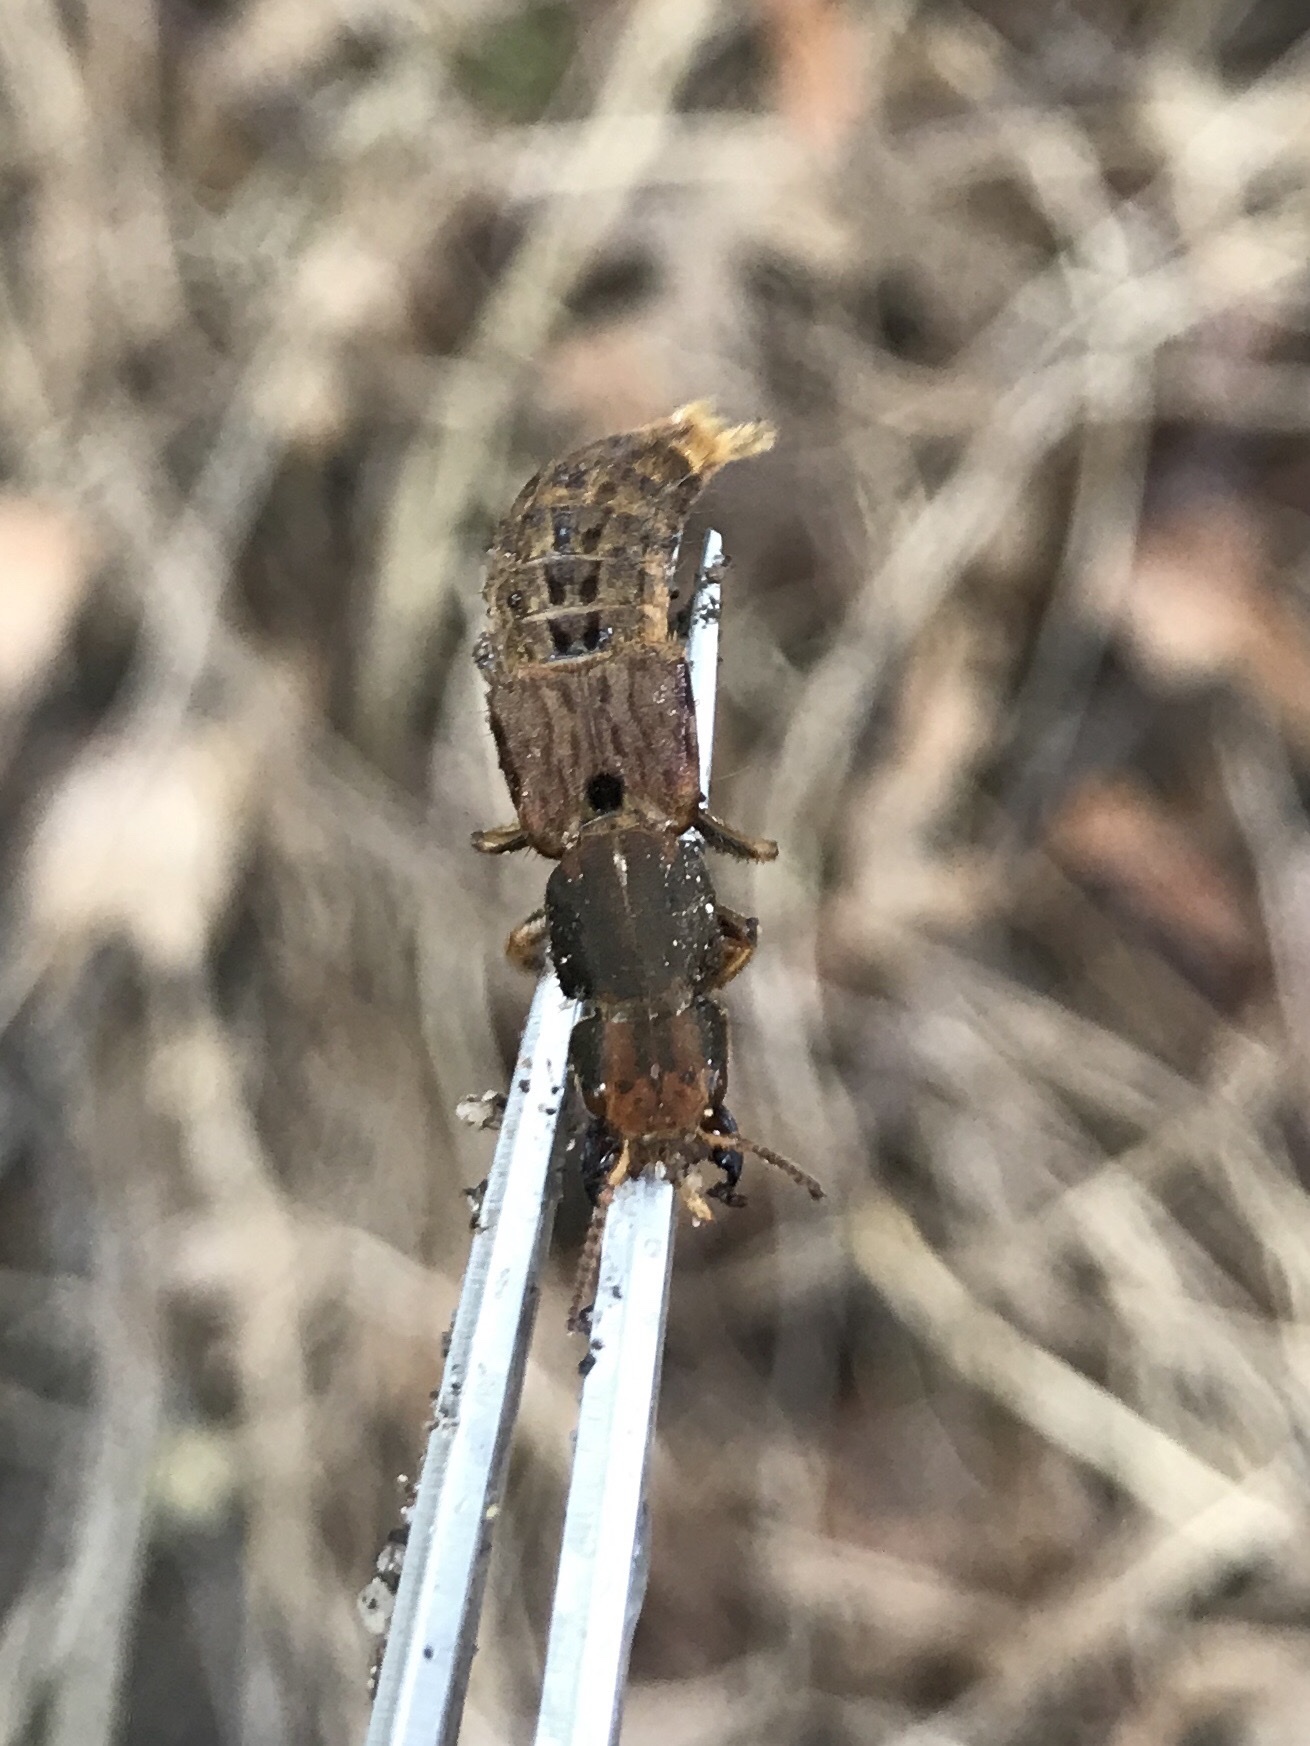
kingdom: Animalia
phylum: Arthropoda
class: Insecta
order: Coleoptera
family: Staphylinidae
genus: Platydracus
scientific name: Platydracus maculosus
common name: Brown rove beetle
